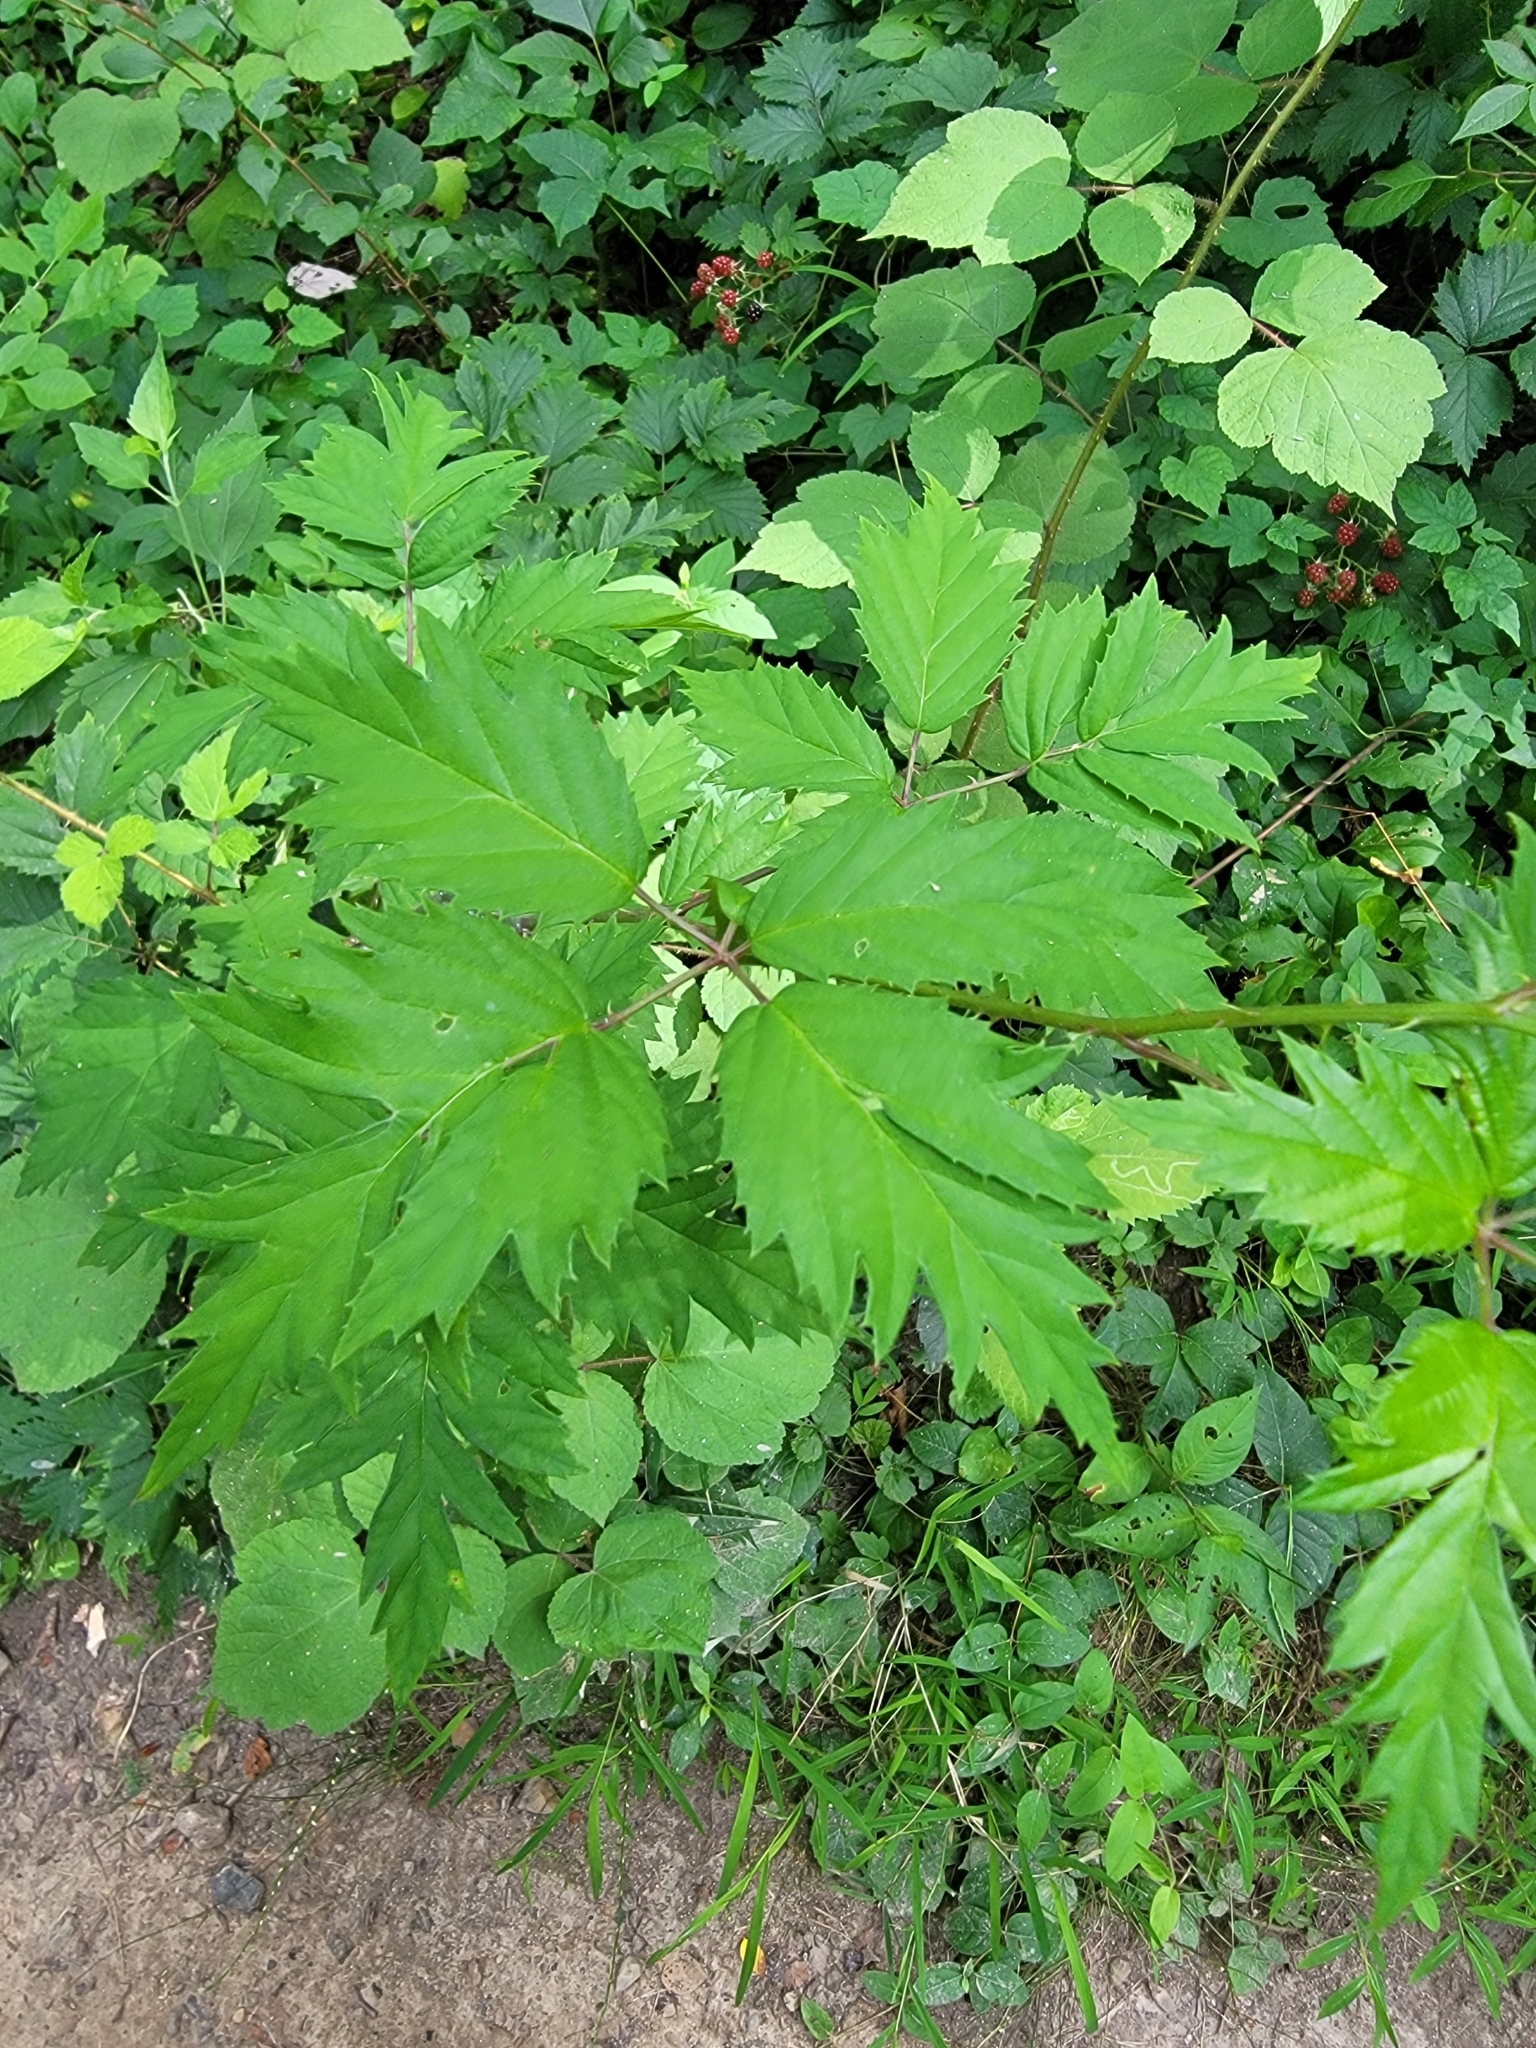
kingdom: Plantae
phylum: Tracheophyta
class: Magnoliopsida
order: Rosales
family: Rosaceae
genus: Rubus
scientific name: Rubus laciniatus
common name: Evergreen blackberry
